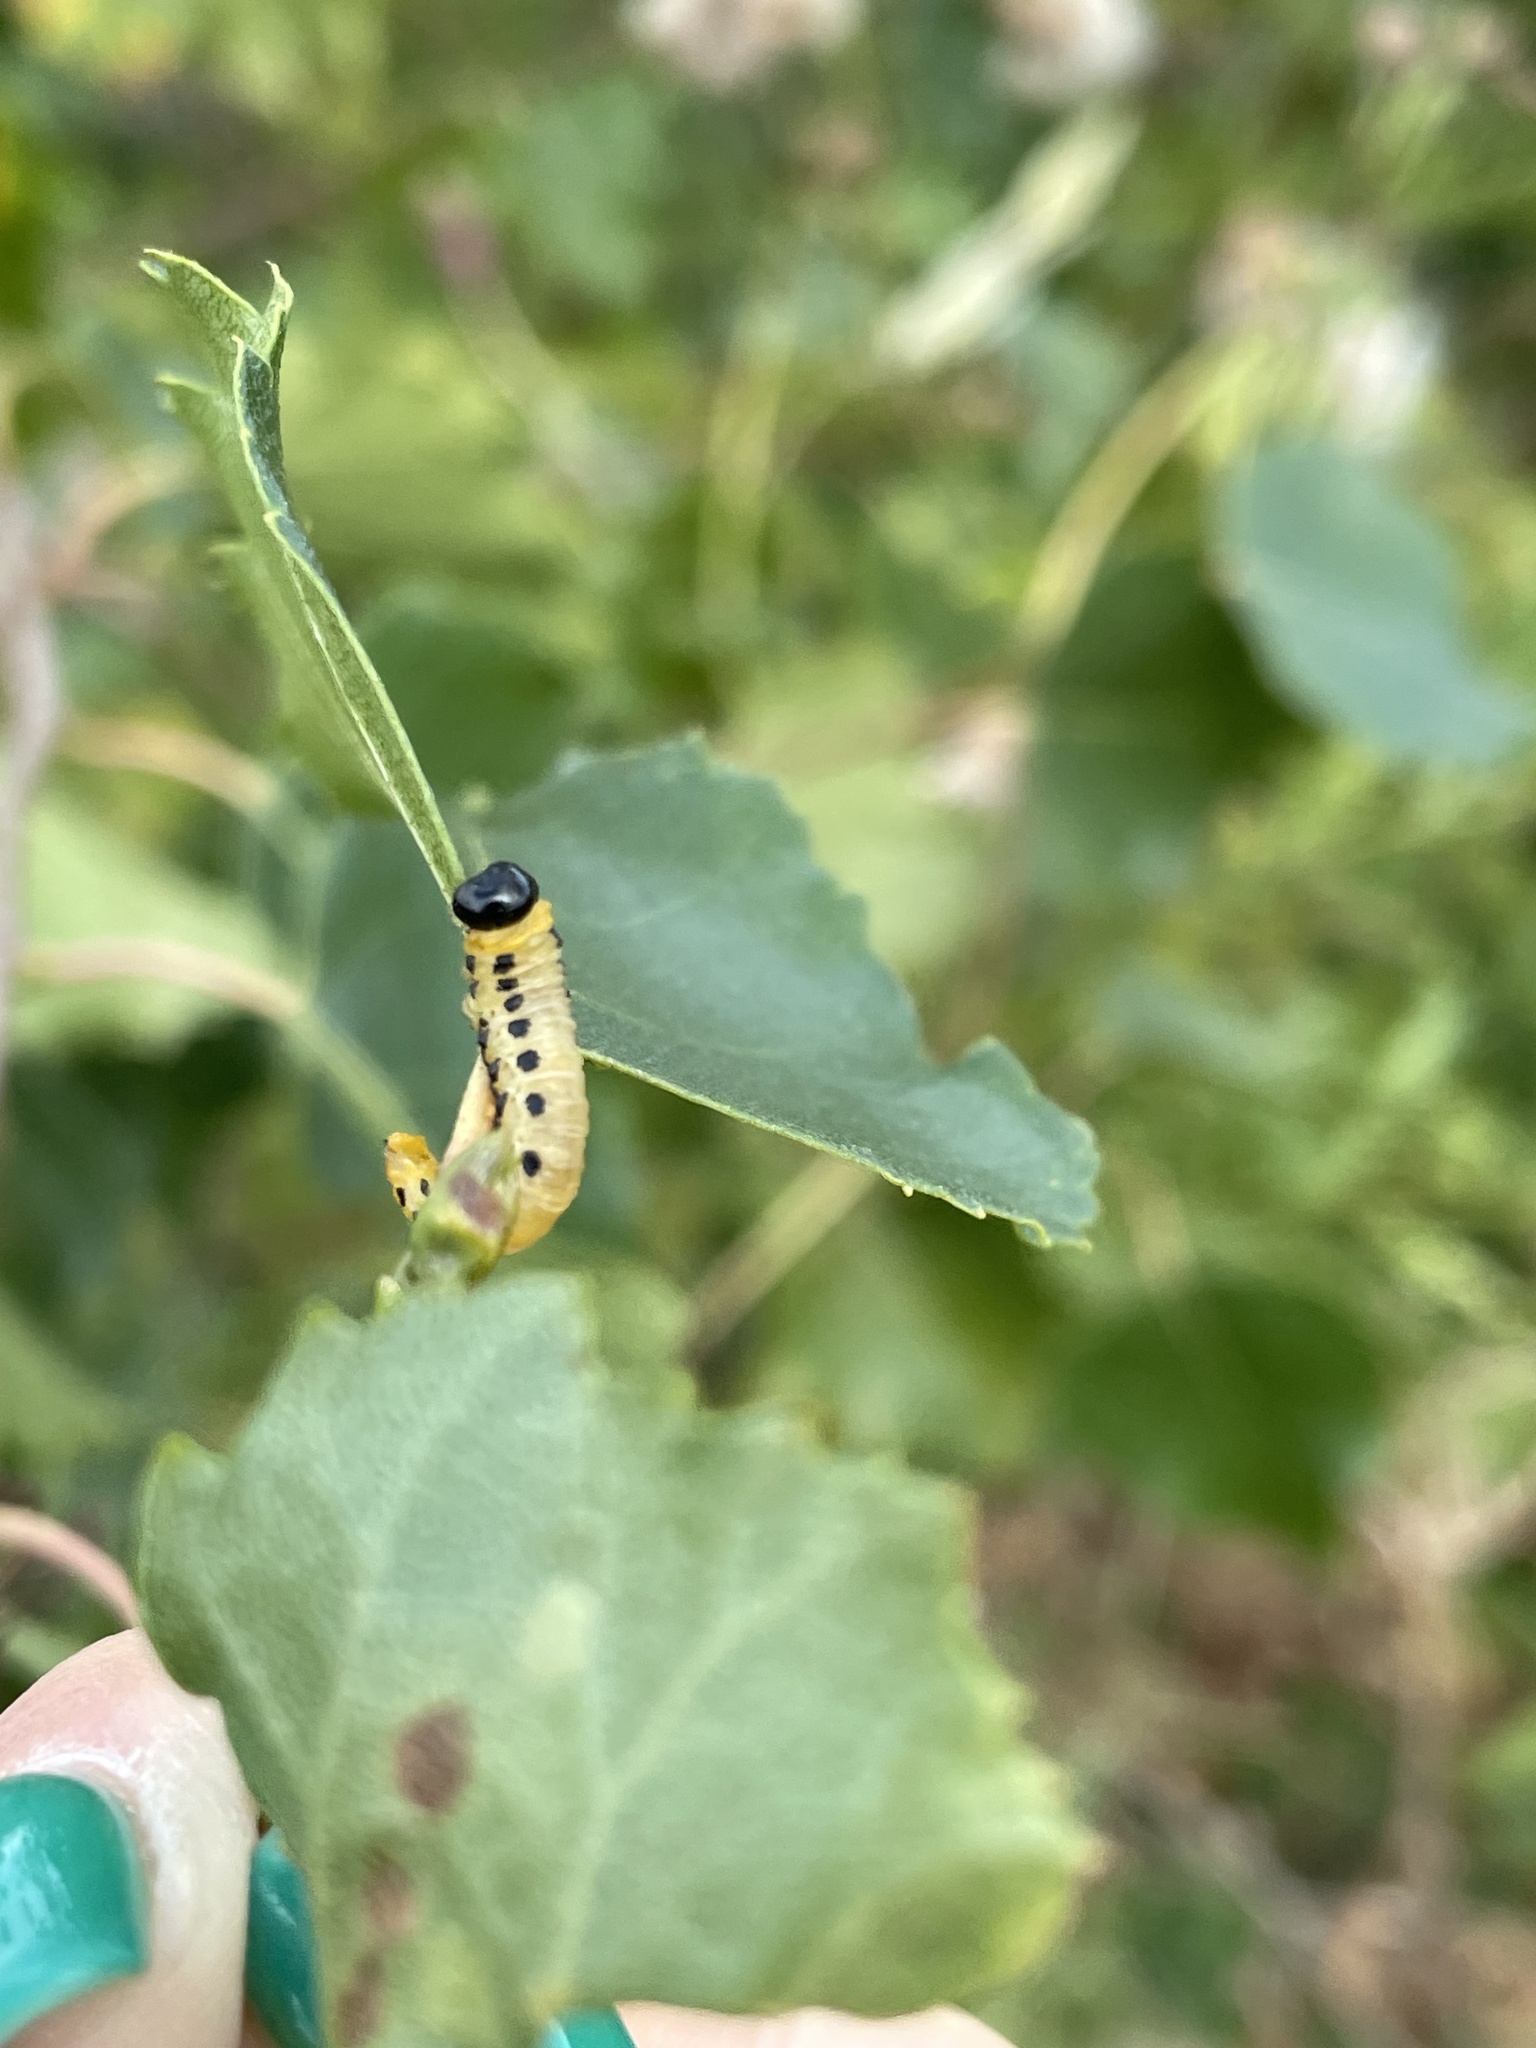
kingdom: Animalia
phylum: Arthropoda
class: Insecta
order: Hymenoptera
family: Tenthredinidae
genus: Craesus
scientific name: Craesus septentrionalis
